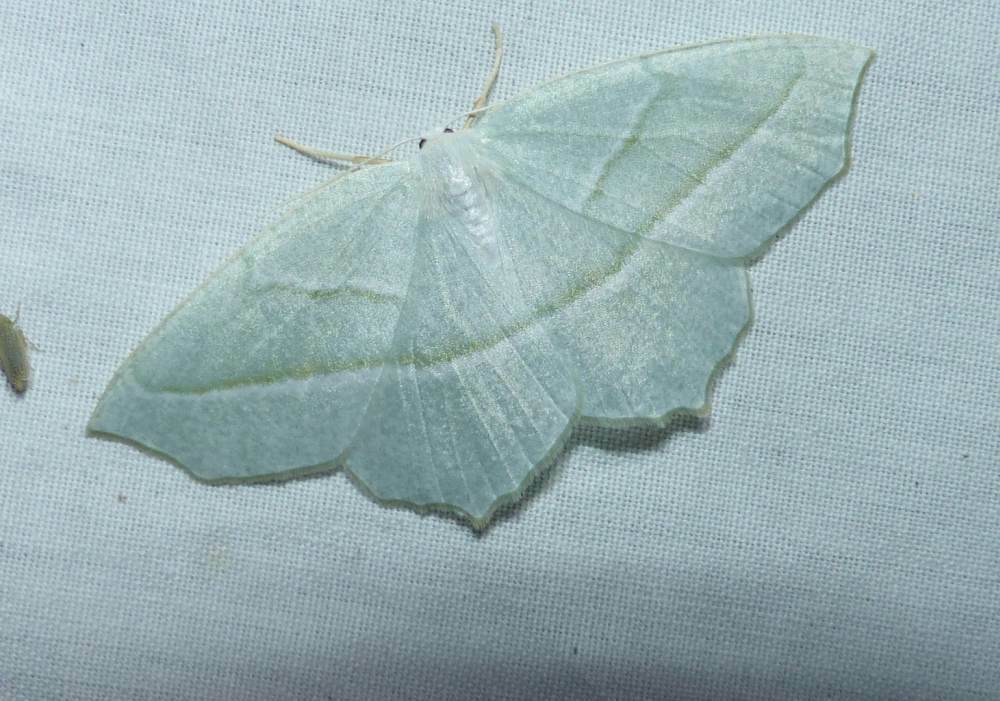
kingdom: Animalia
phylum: Arthropoda
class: Insecta
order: Lepidoptera
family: Geometridae
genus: Campaea
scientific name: Campaea perlata
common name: Fringed looper
